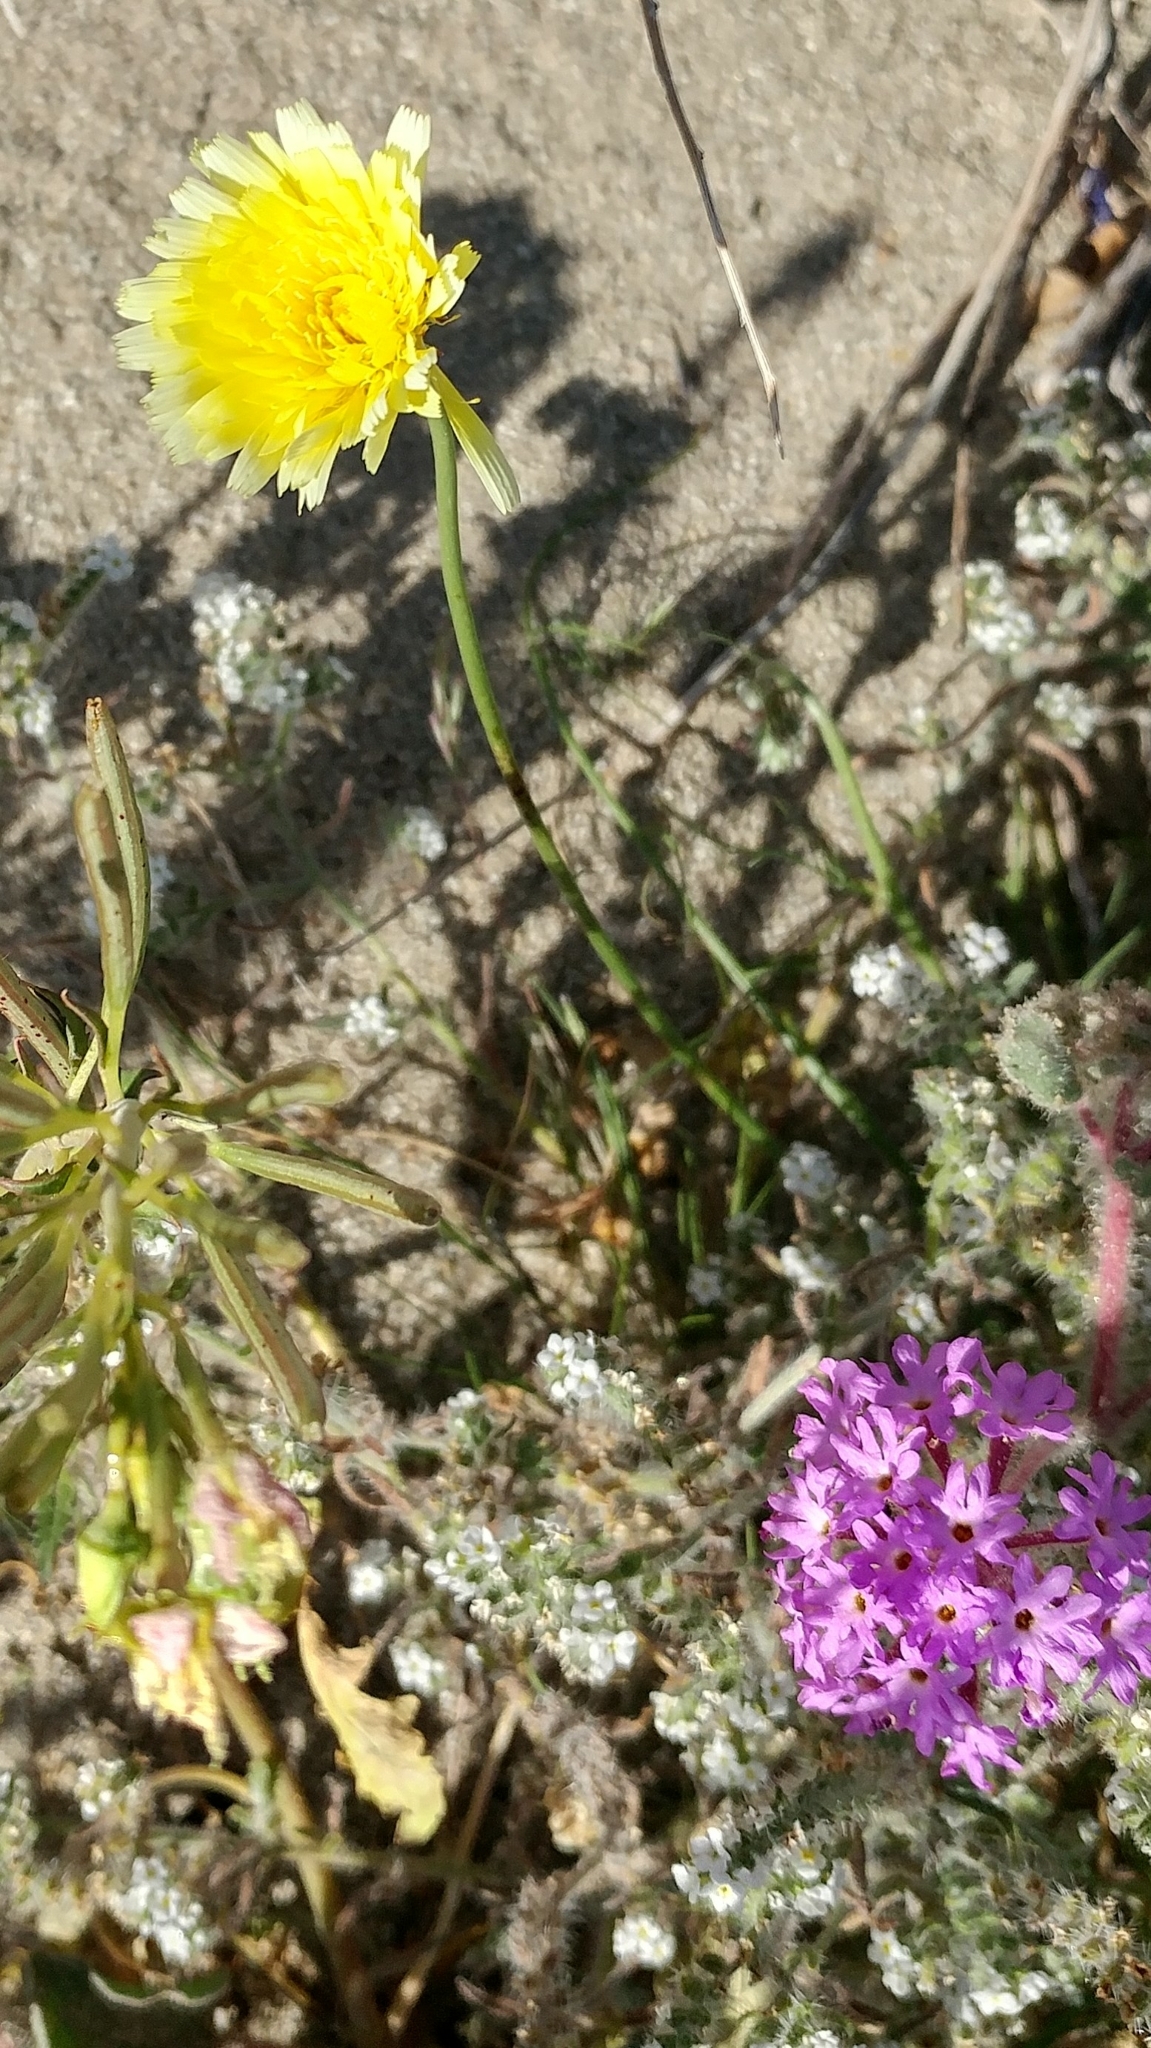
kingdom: Plantae
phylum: Tracheophyta
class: Magnoliopsida
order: Asterales
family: Asteraceae
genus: Malacothrix
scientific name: Malacothrix glabrata
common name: Smooth desert-dandelion
